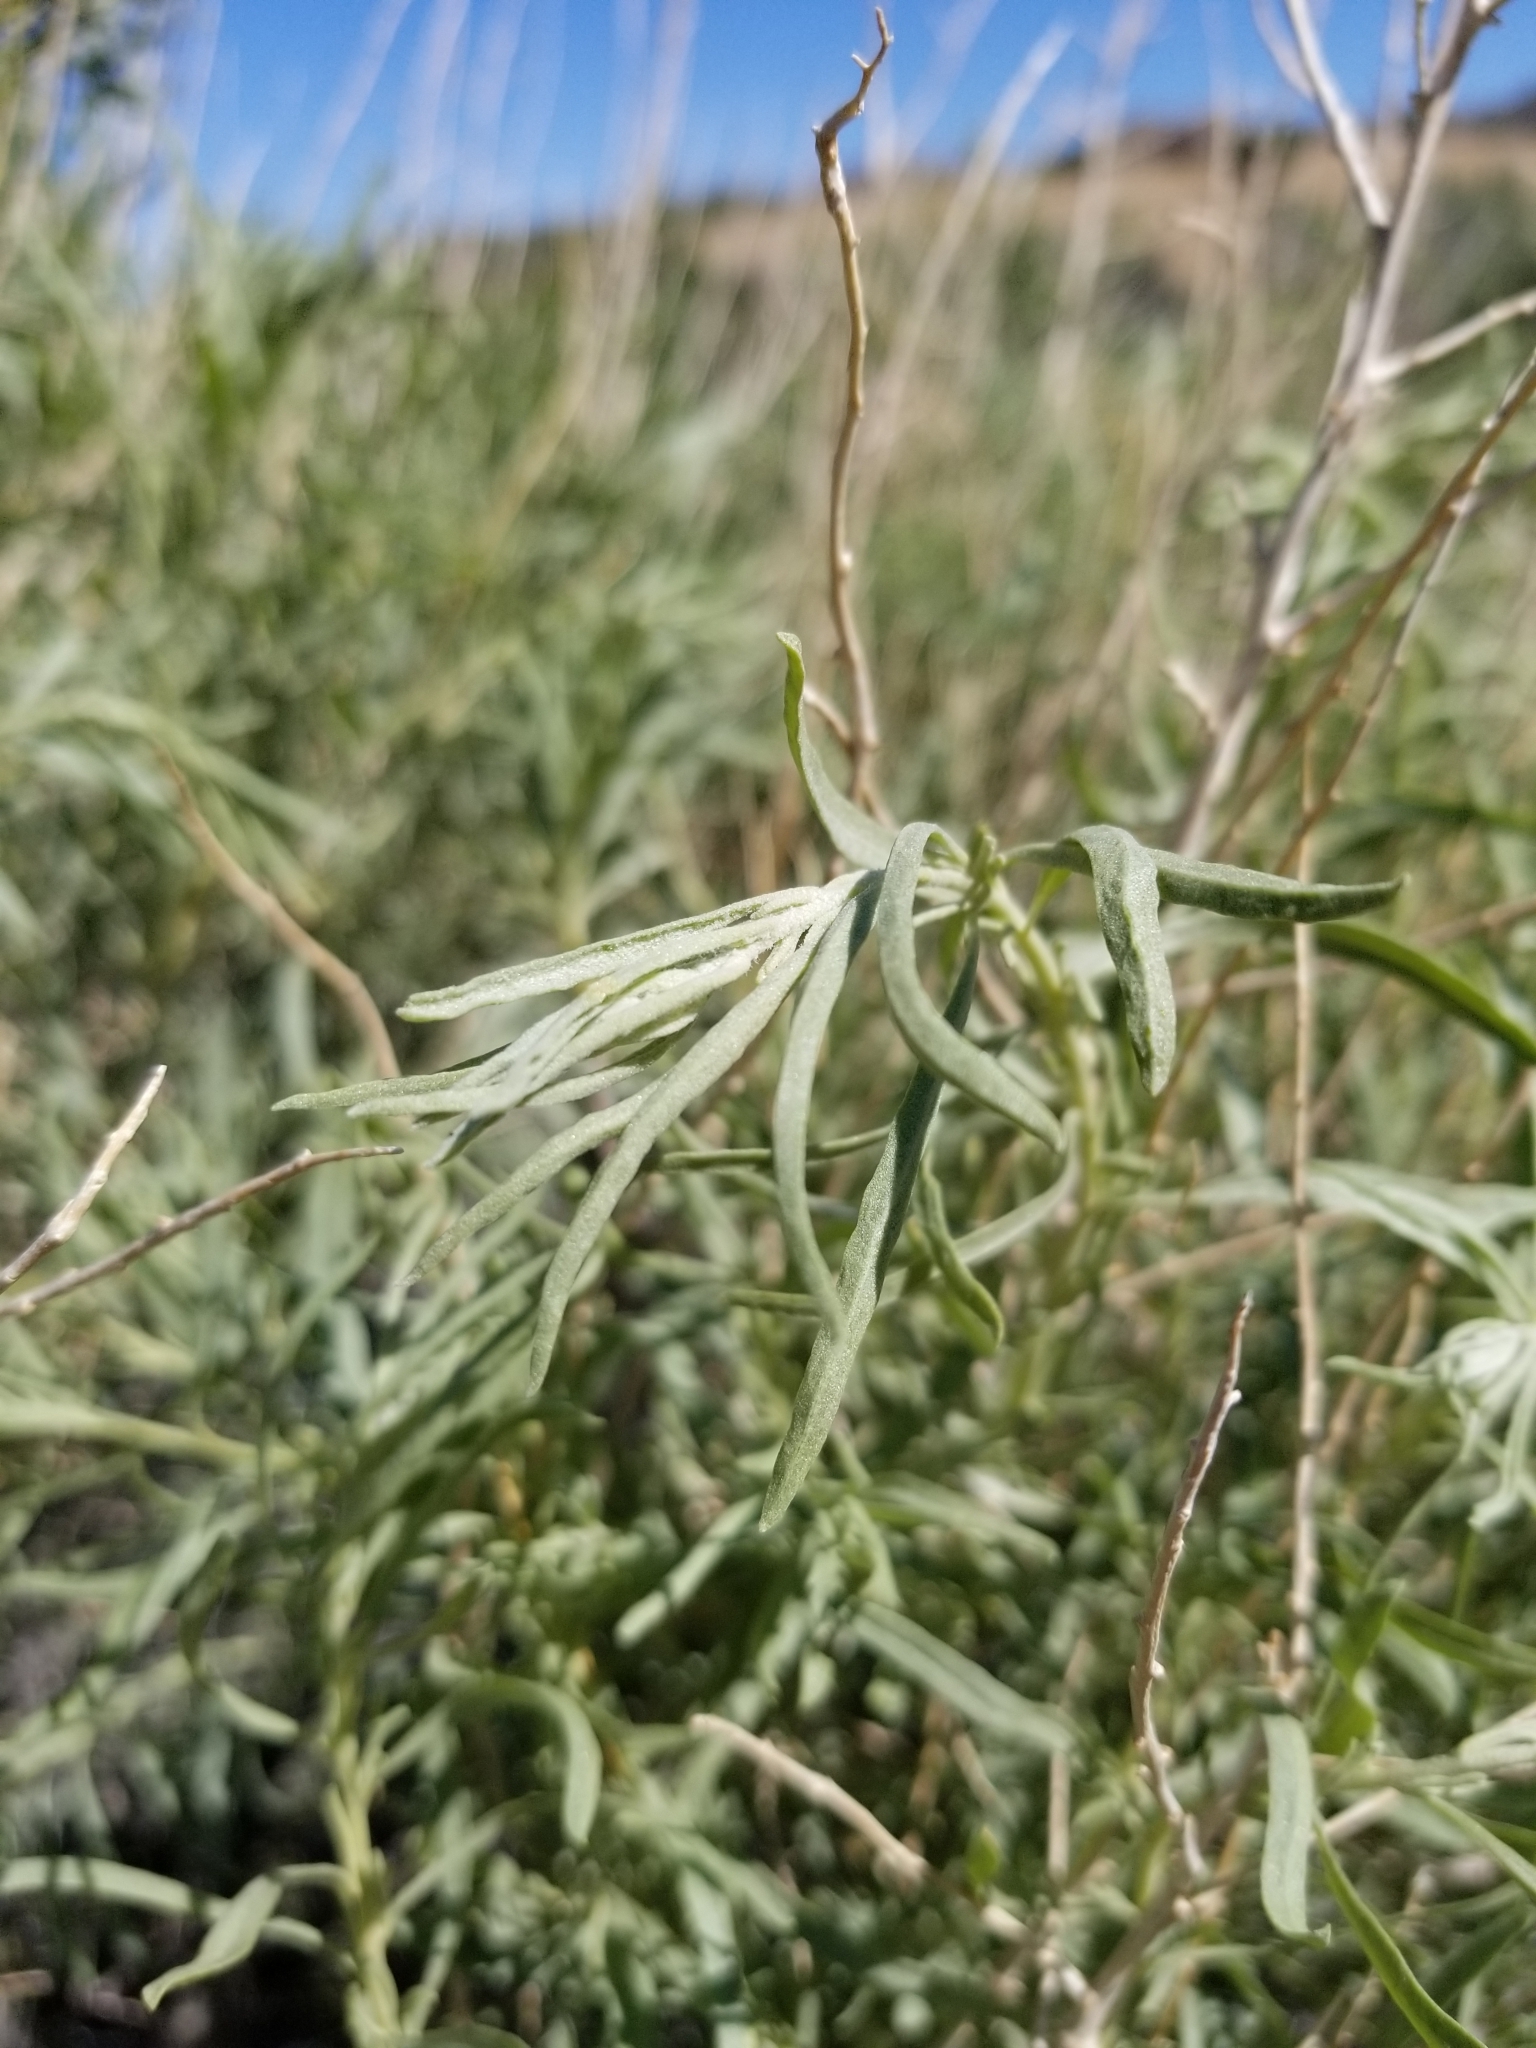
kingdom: Plantae
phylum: Tracheophyta
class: Magnoliopsida
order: Caryophyllales
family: Amaranthaceae
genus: Atriplex
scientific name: Atriplex canescens
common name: Four-wing saltbush
